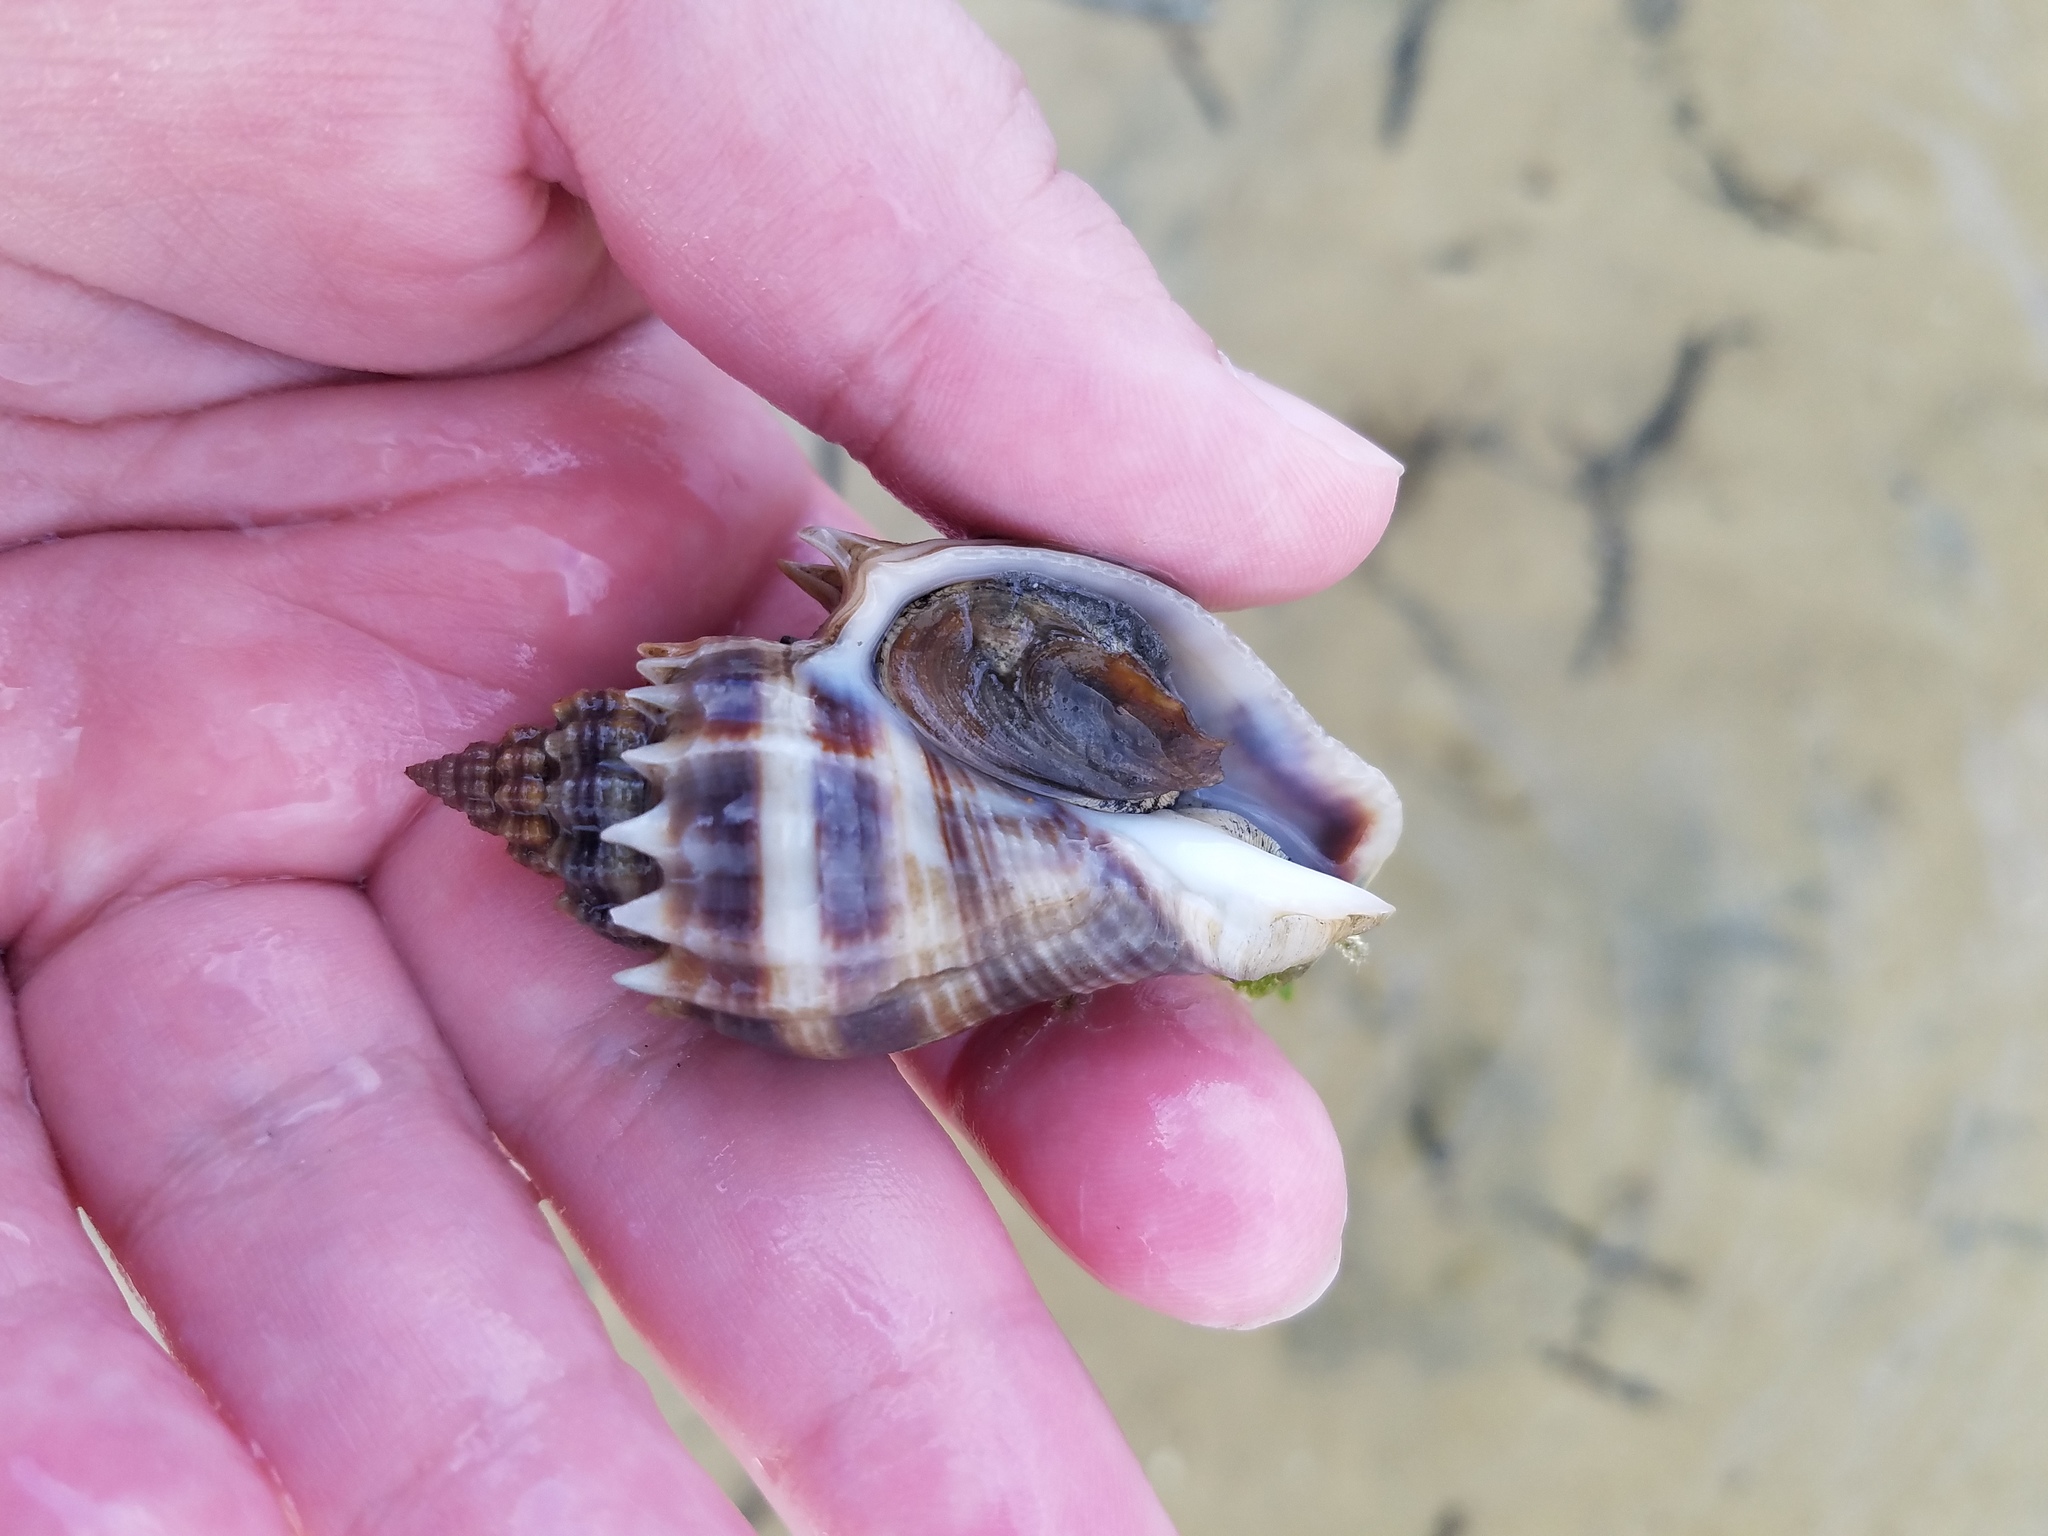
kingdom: Animalia
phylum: Mollusca
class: Gastropoda
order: Neogastropoda
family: Melongenidae
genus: Melongena
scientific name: Melongena corona
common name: American crown conch
